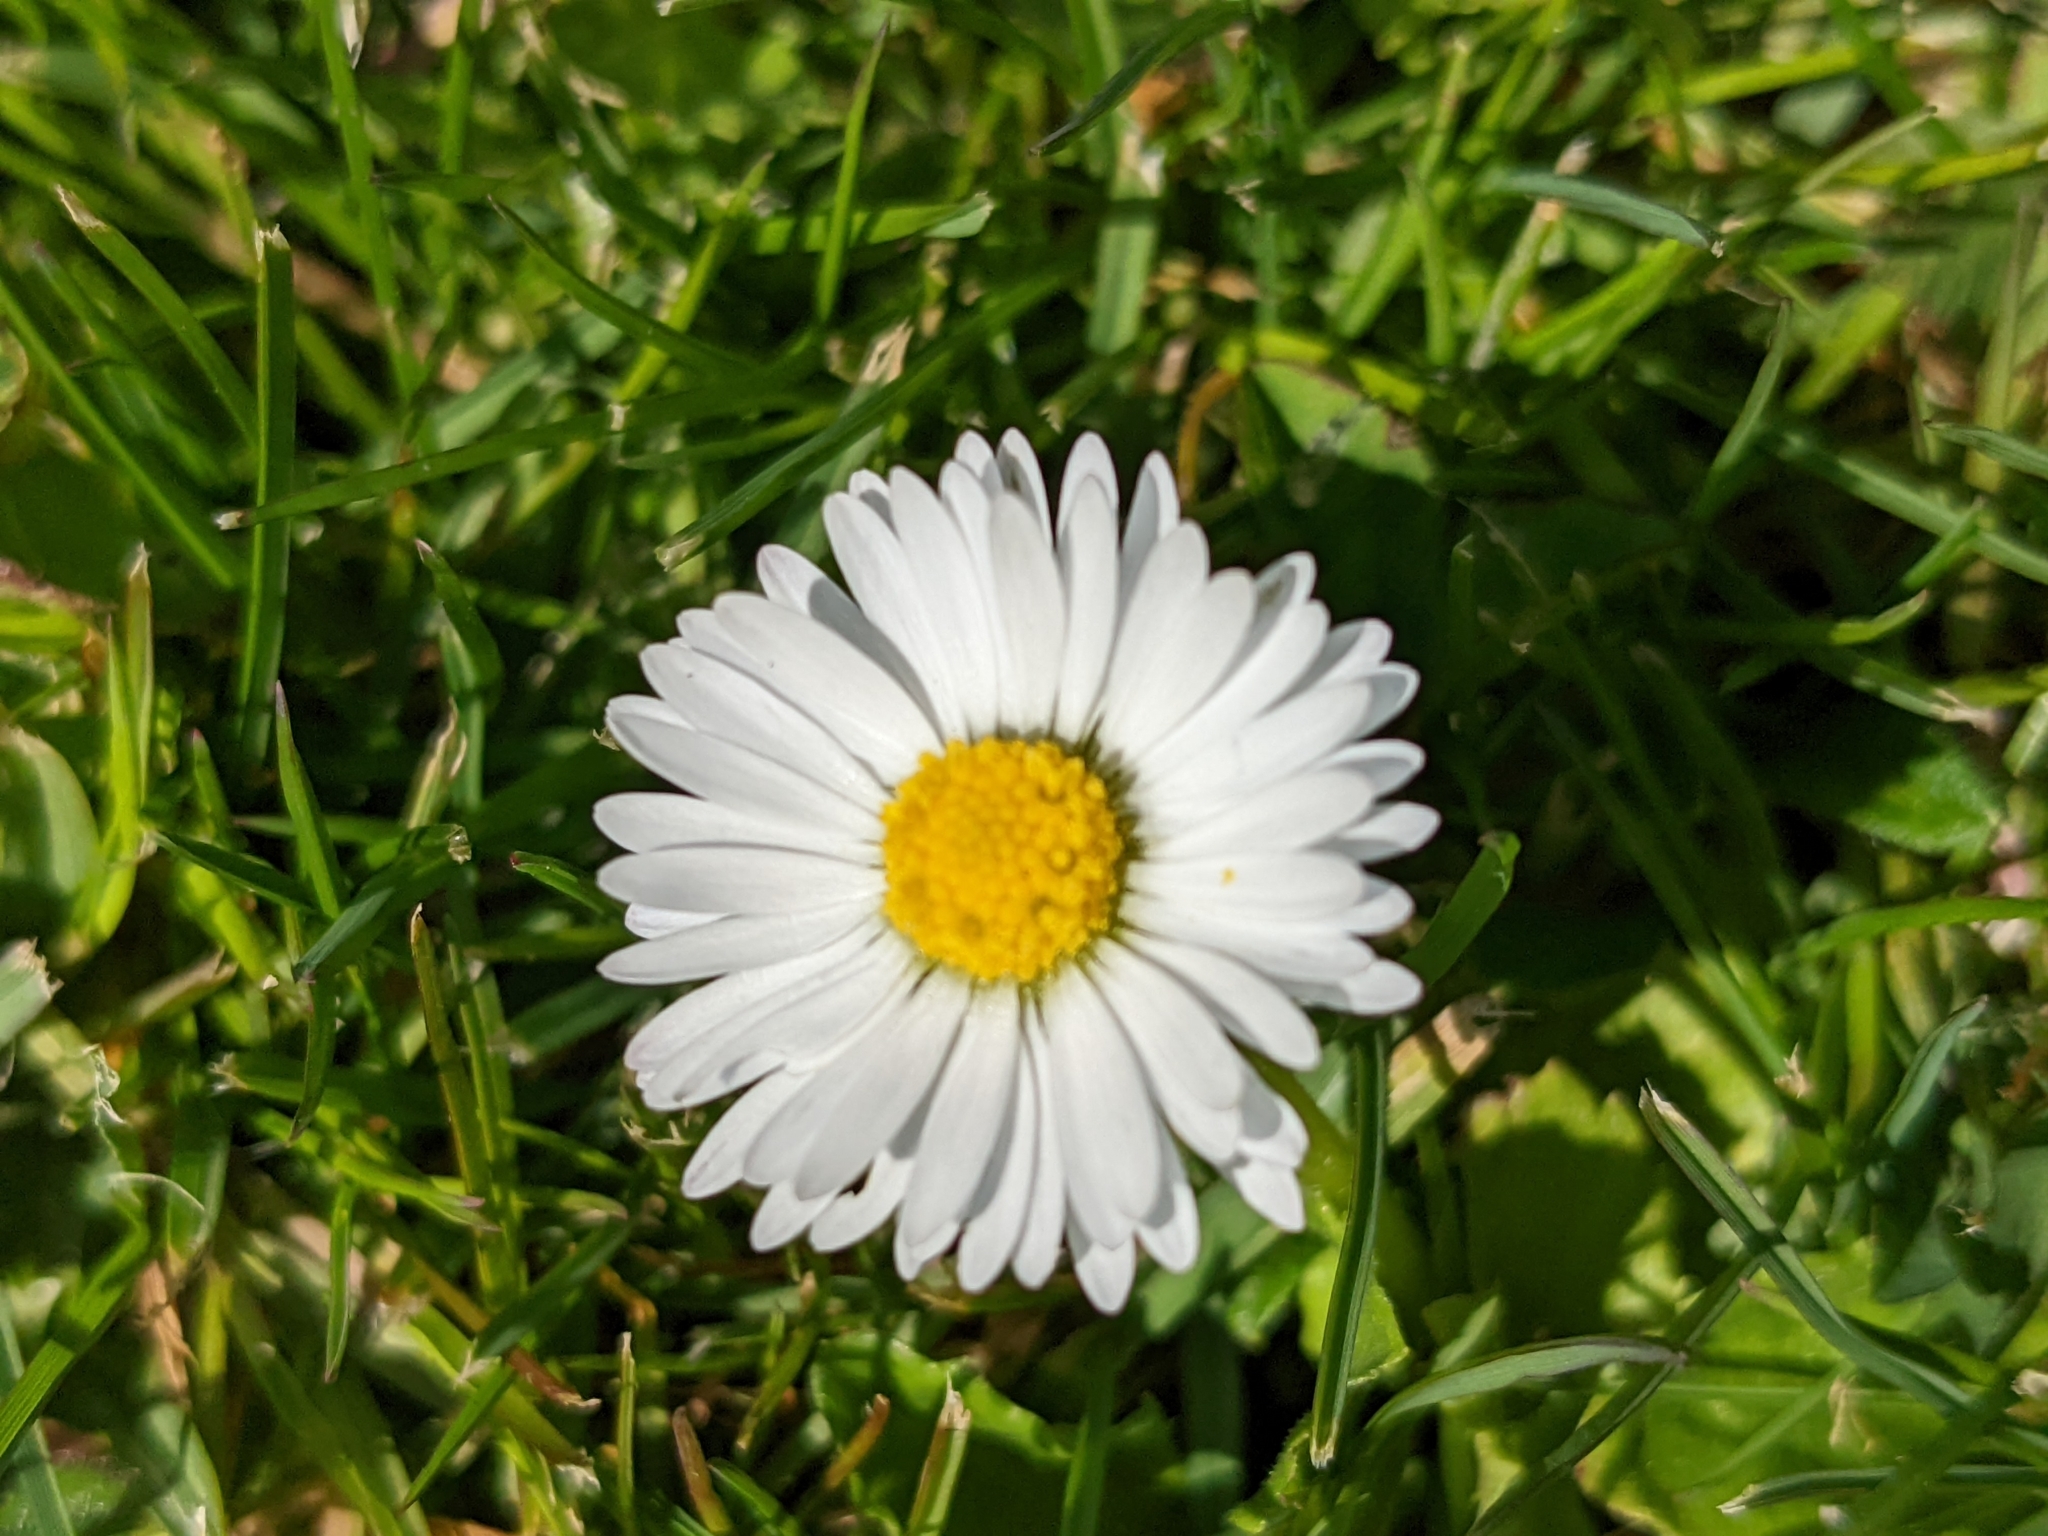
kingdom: Plantae
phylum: Tracheophyta
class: Magnoliopsida
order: Asterales
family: Asteraceae
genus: Bellis
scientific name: Bellis perennis
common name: Lawndaisy
